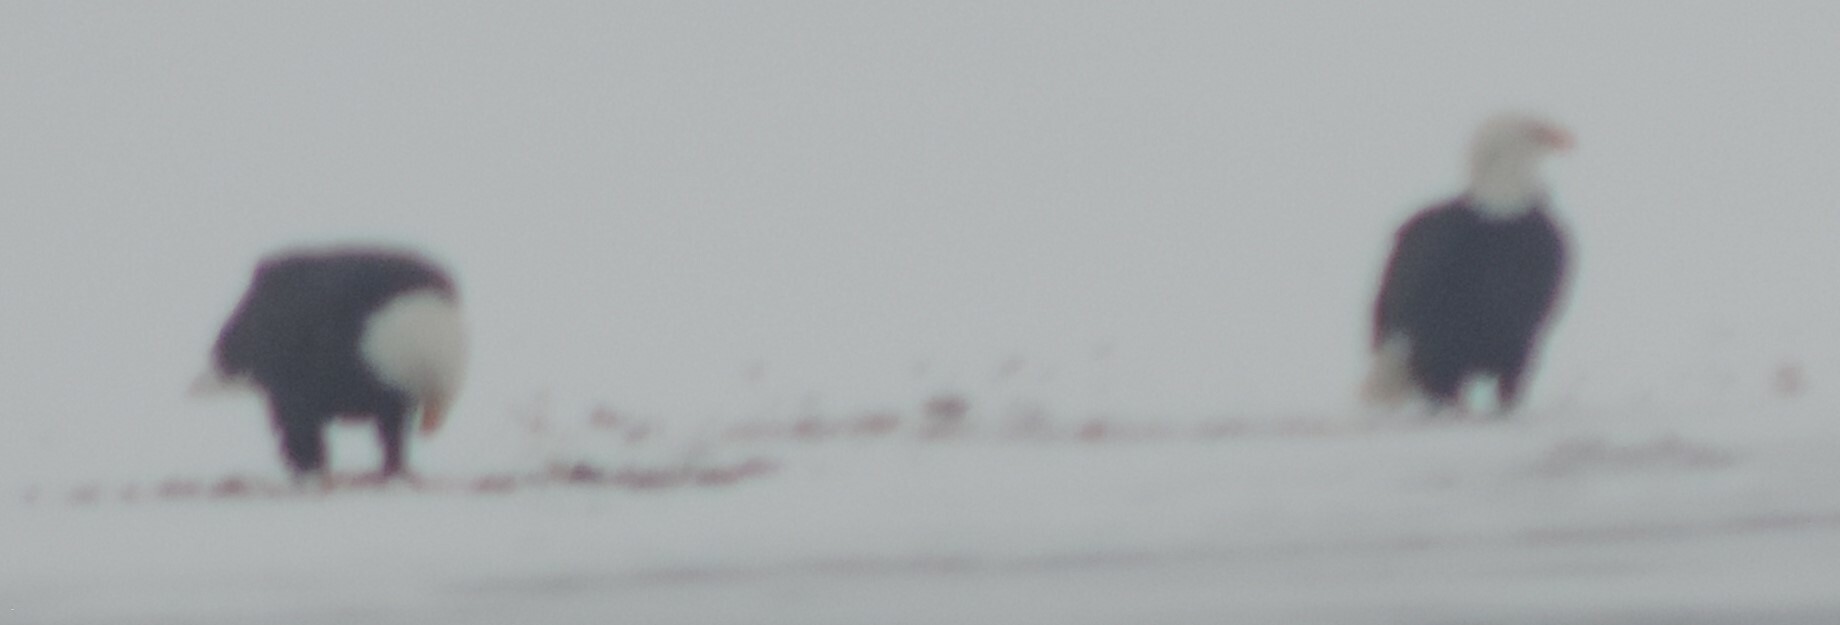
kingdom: Animalia
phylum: Chordata
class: Aves
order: Accipitriformes
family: Accipitridae
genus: Haliaeetus
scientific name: Haliaeetus leucocephalus
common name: Bald eagle
